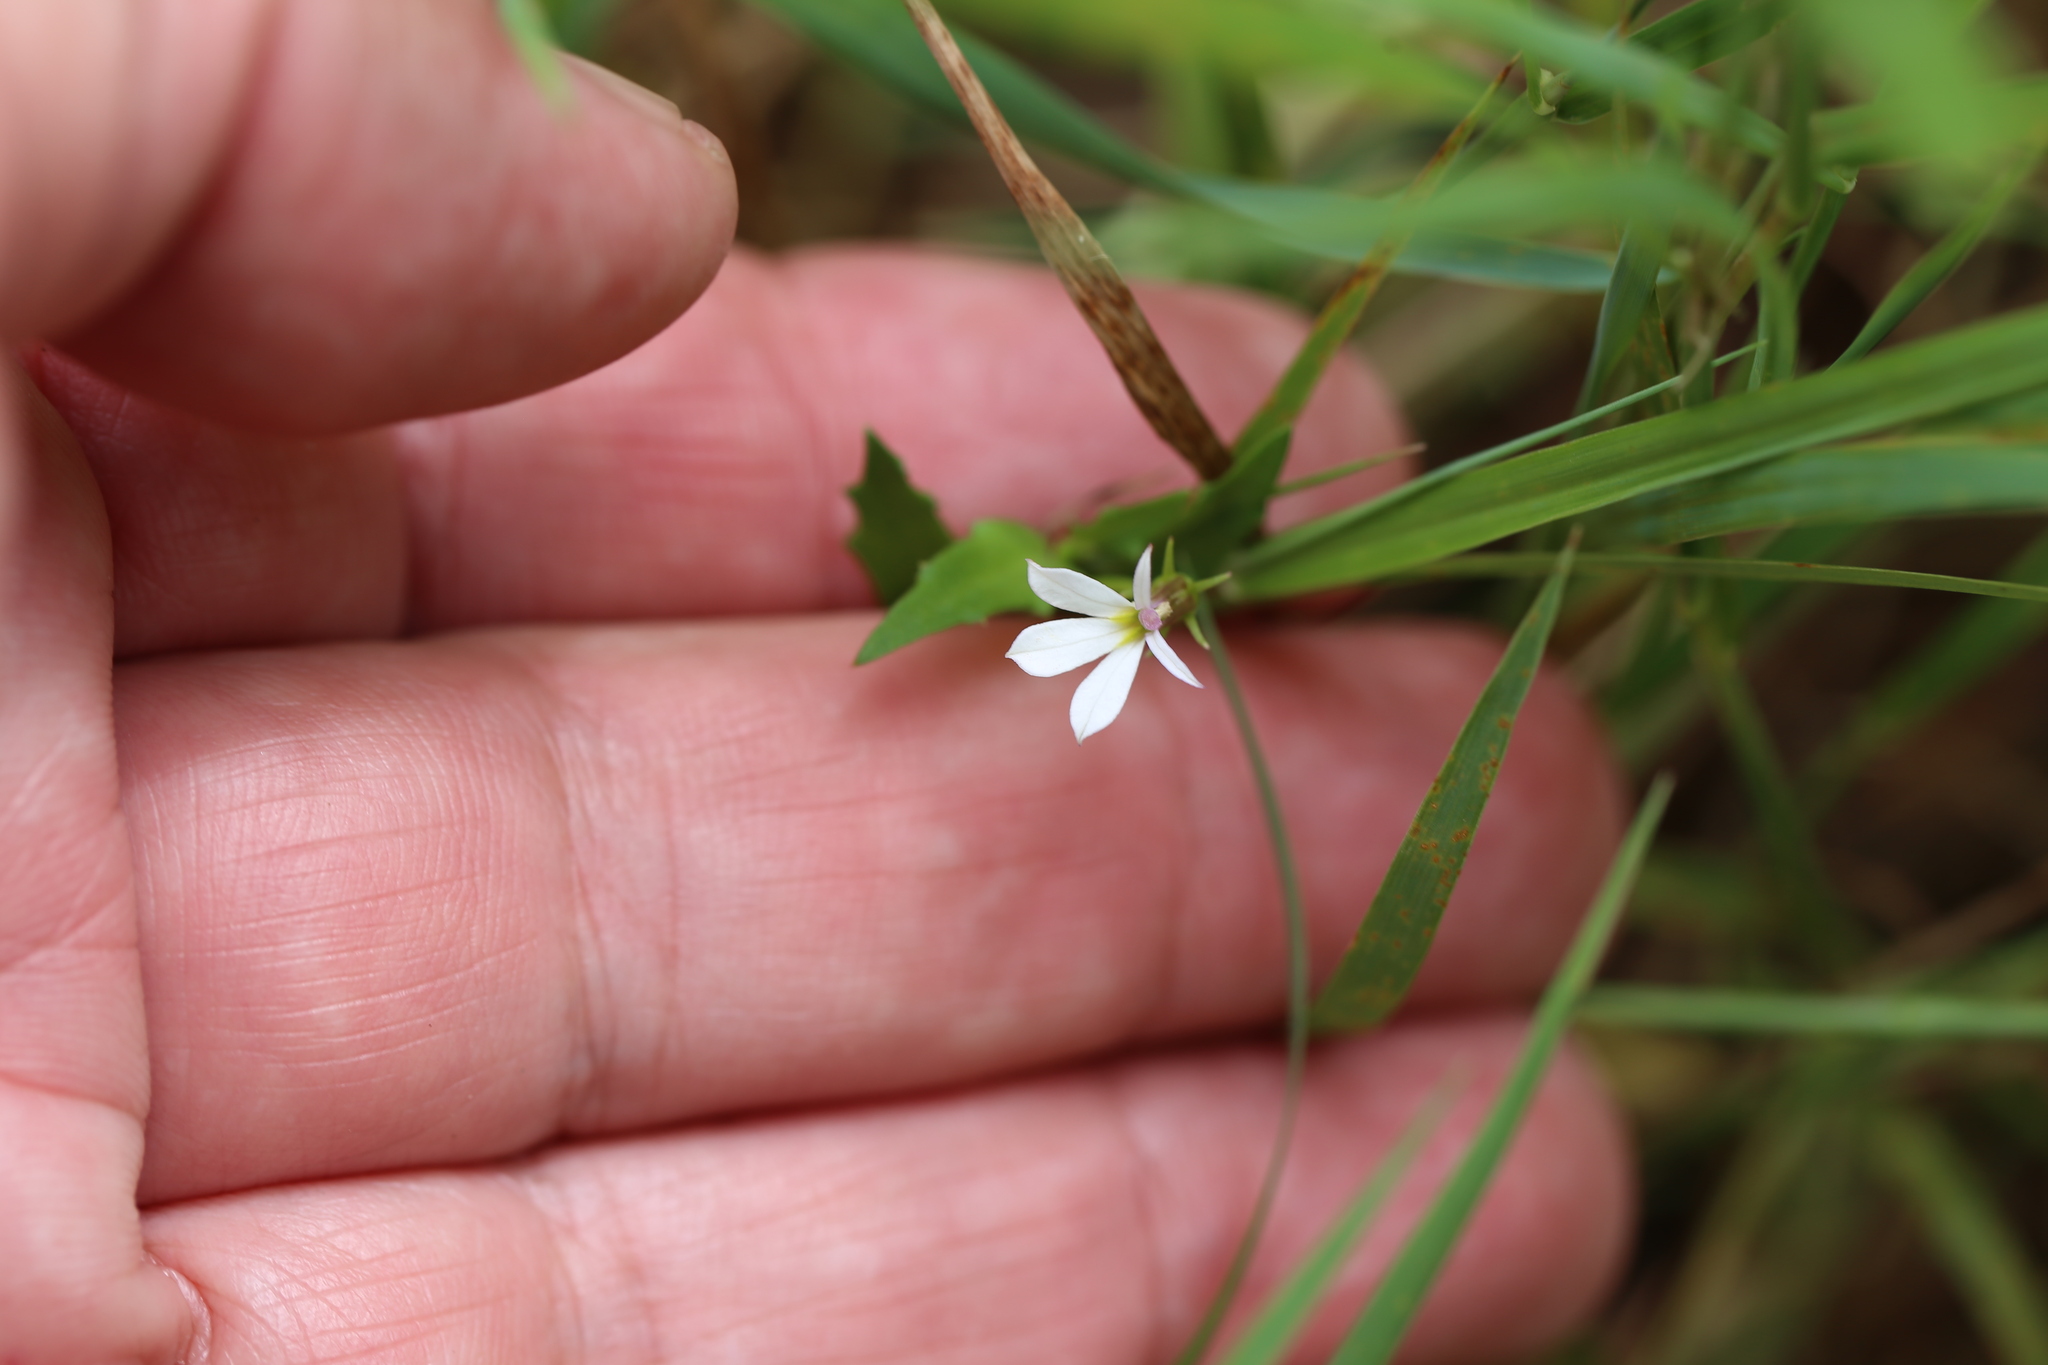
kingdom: Plantae
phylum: Tracheophyta
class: Magnoliopsida
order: Asterales
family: Campanulaceae
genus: Lobelia
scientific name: Lobelia purpurascens
